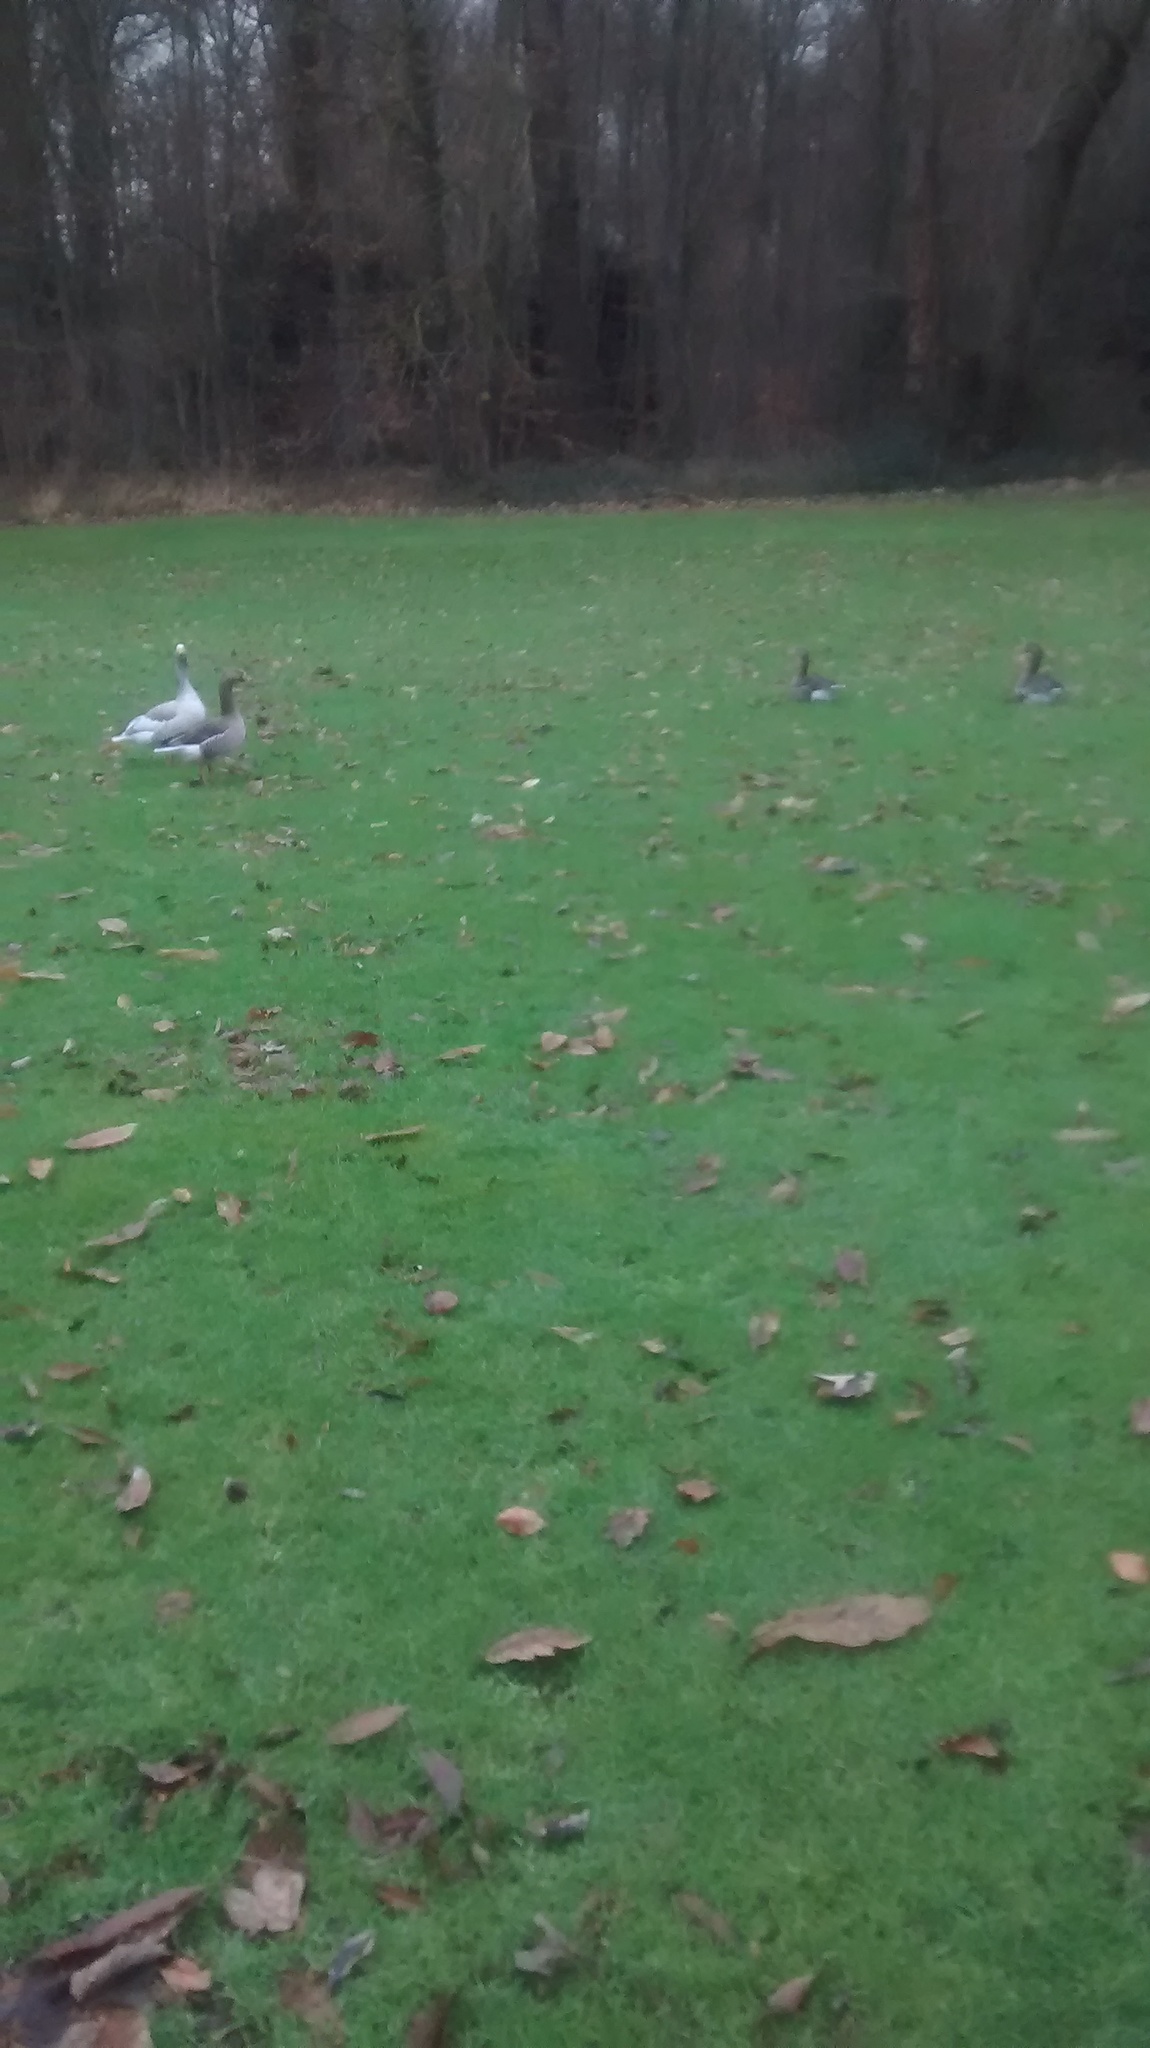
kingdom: Animalia
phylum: Chordata
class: Aves
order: Anseriformes
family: Anatidae
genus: Anser
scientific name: Anser anser
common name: Greylag goose
